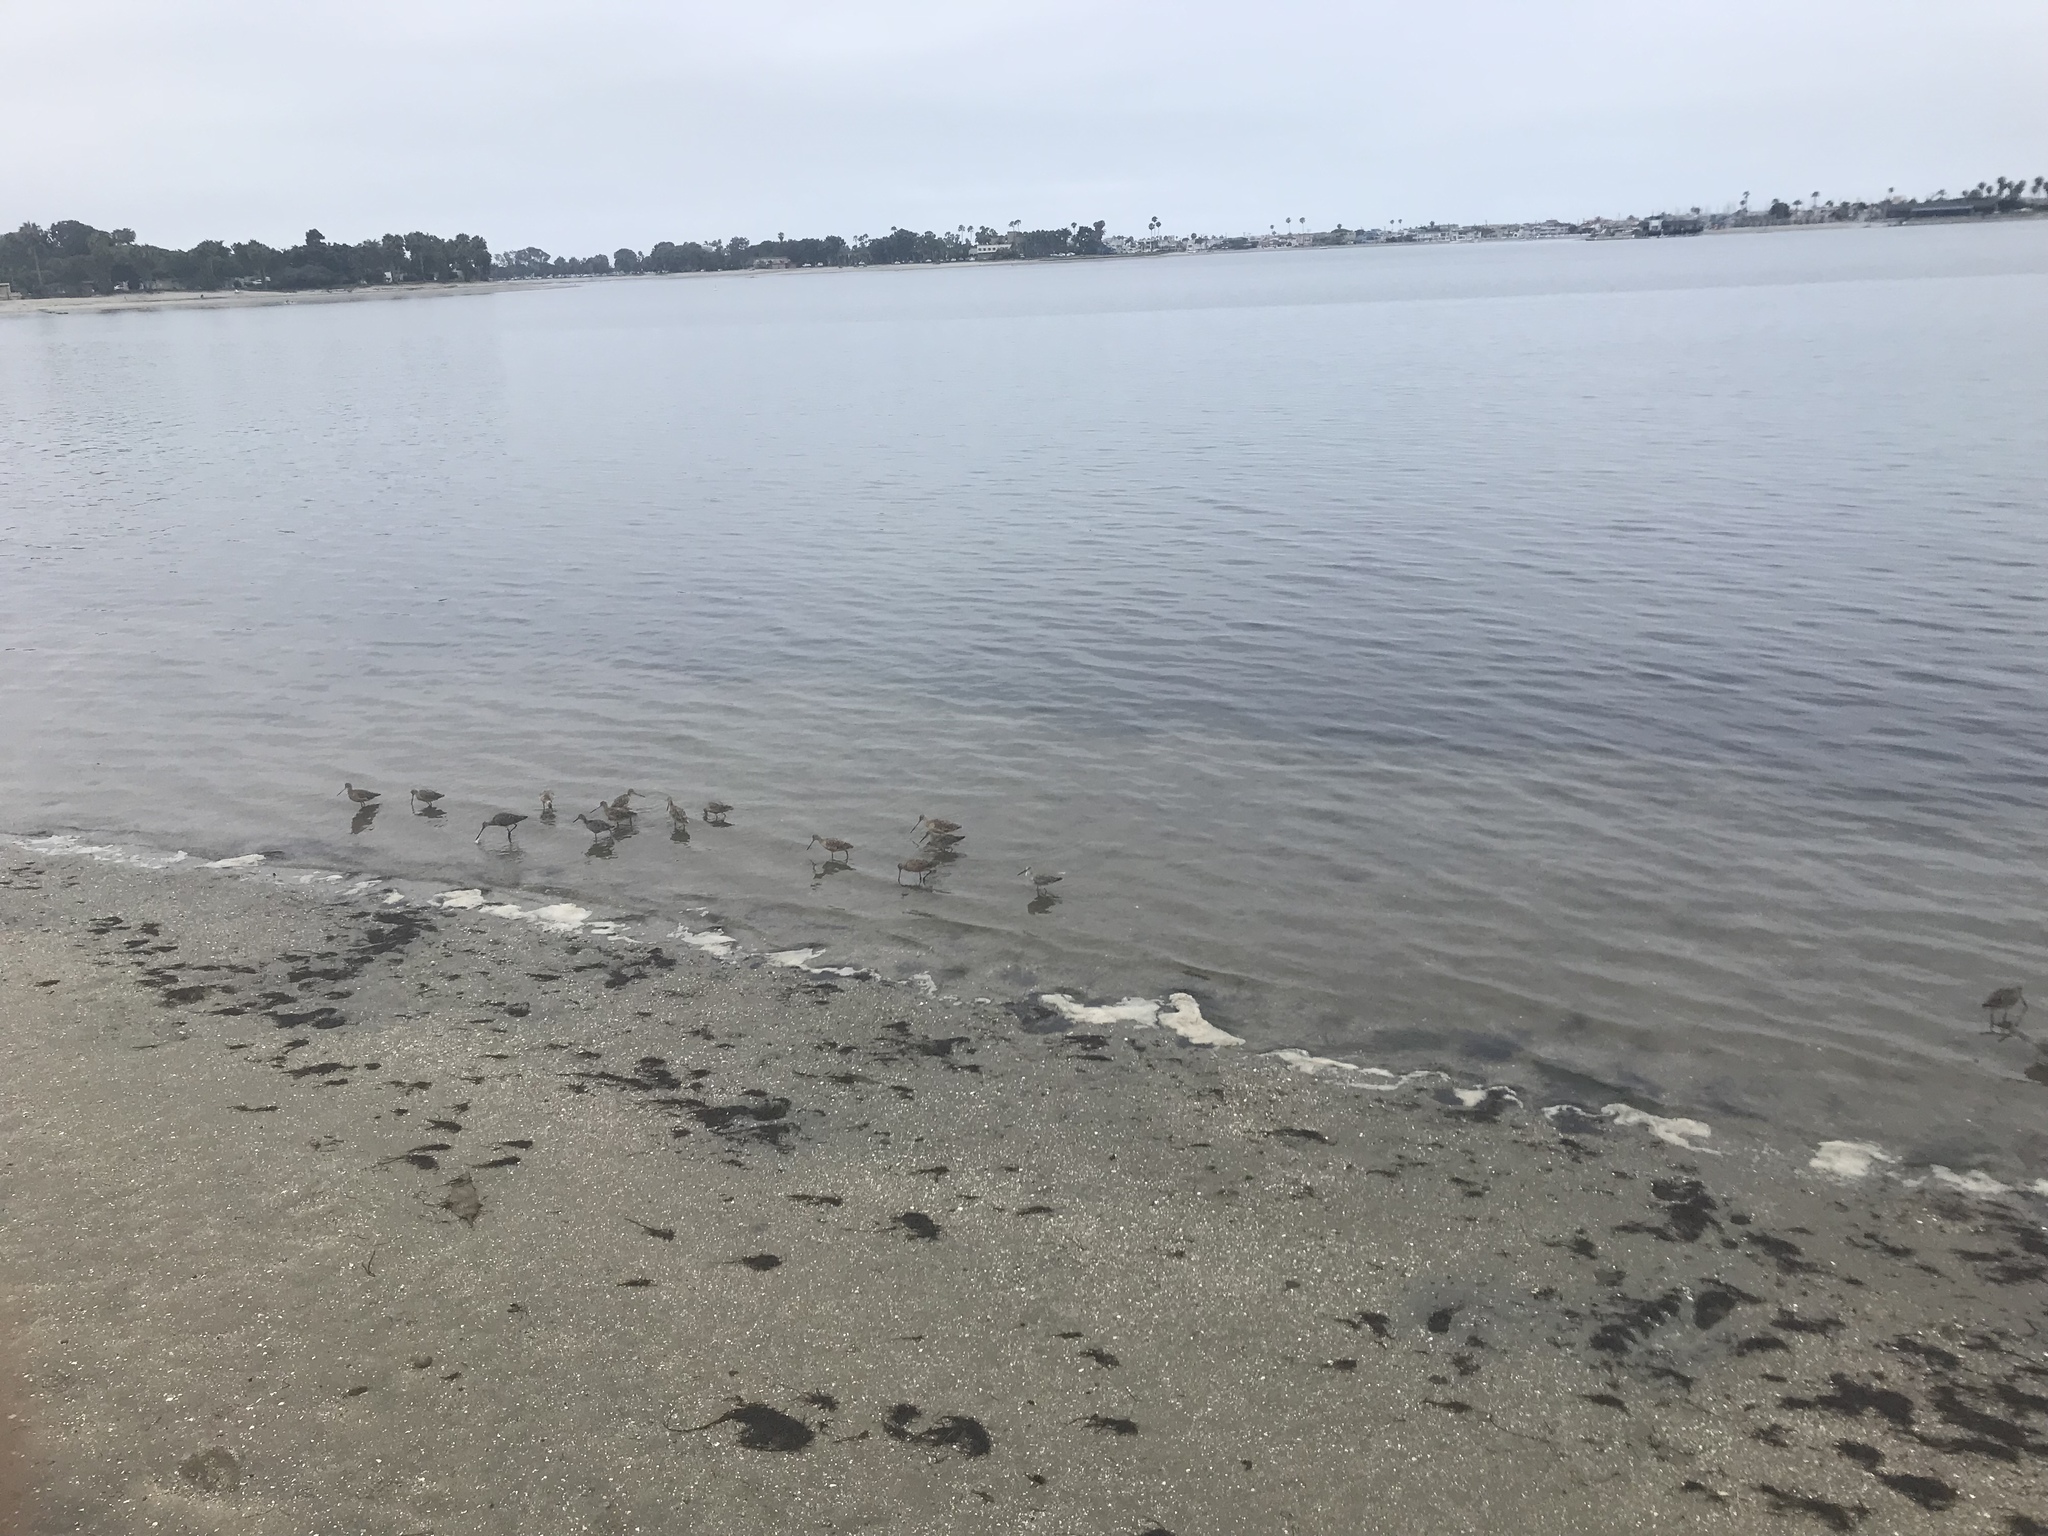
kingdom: Animalia
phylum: Chordata
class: Aves
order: Charadriiformes
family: Scolopacidae
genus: Tringa
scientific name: Tringa semipalmata
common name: Willet
